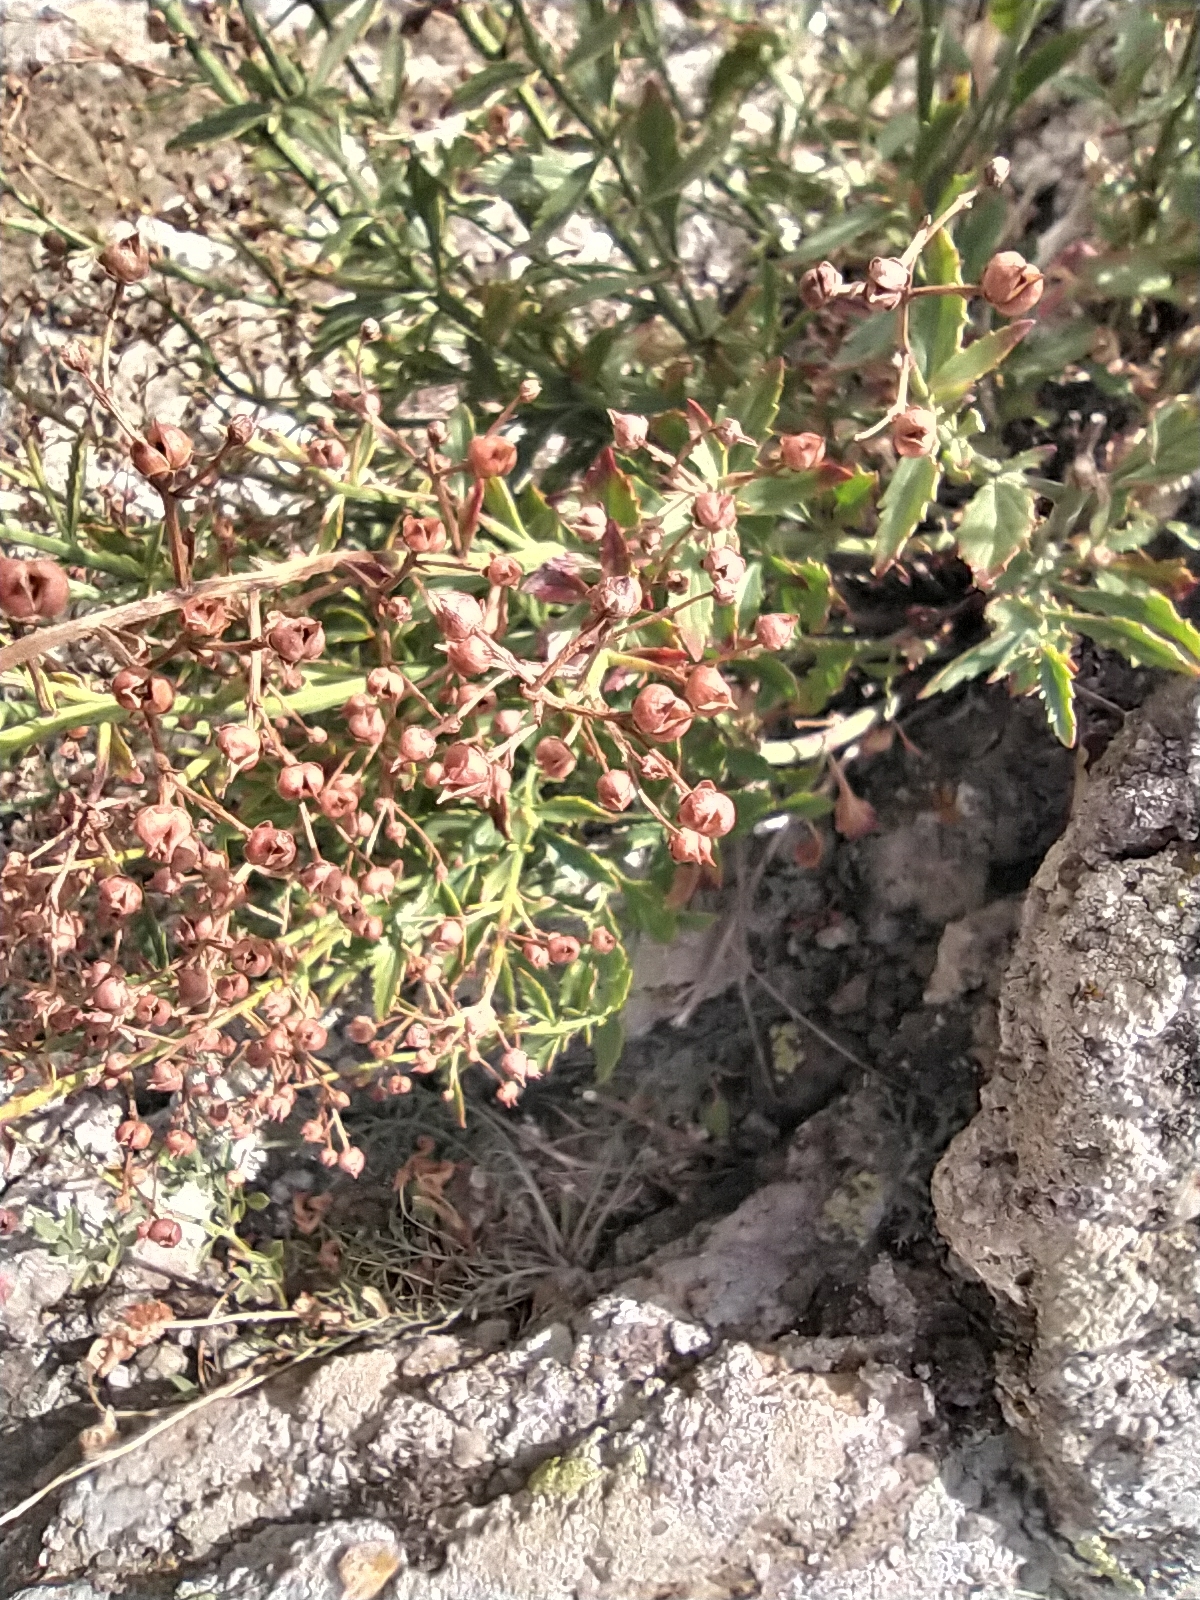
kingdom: Plantae
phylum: Tracheophyta
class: Magnoliopsida
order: Lamiales
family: Scrophulariaceae
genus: Scrophularia
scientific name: Scrophularia rupestris
